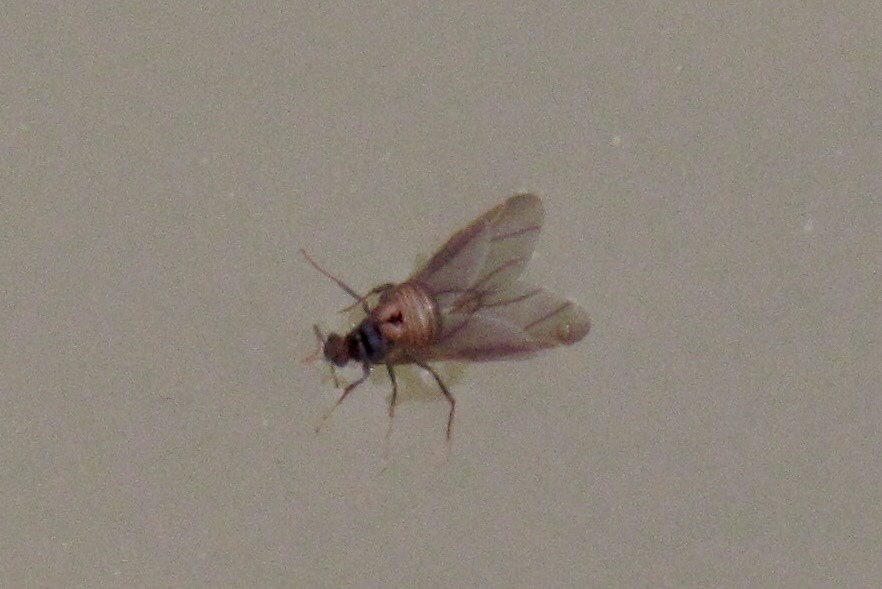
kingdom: Animalia
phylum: Arthropoda
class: Insecta
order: Hymenoptera
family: Formicidae
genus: Acromyrmex
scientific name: Acromyrmex versicolor
